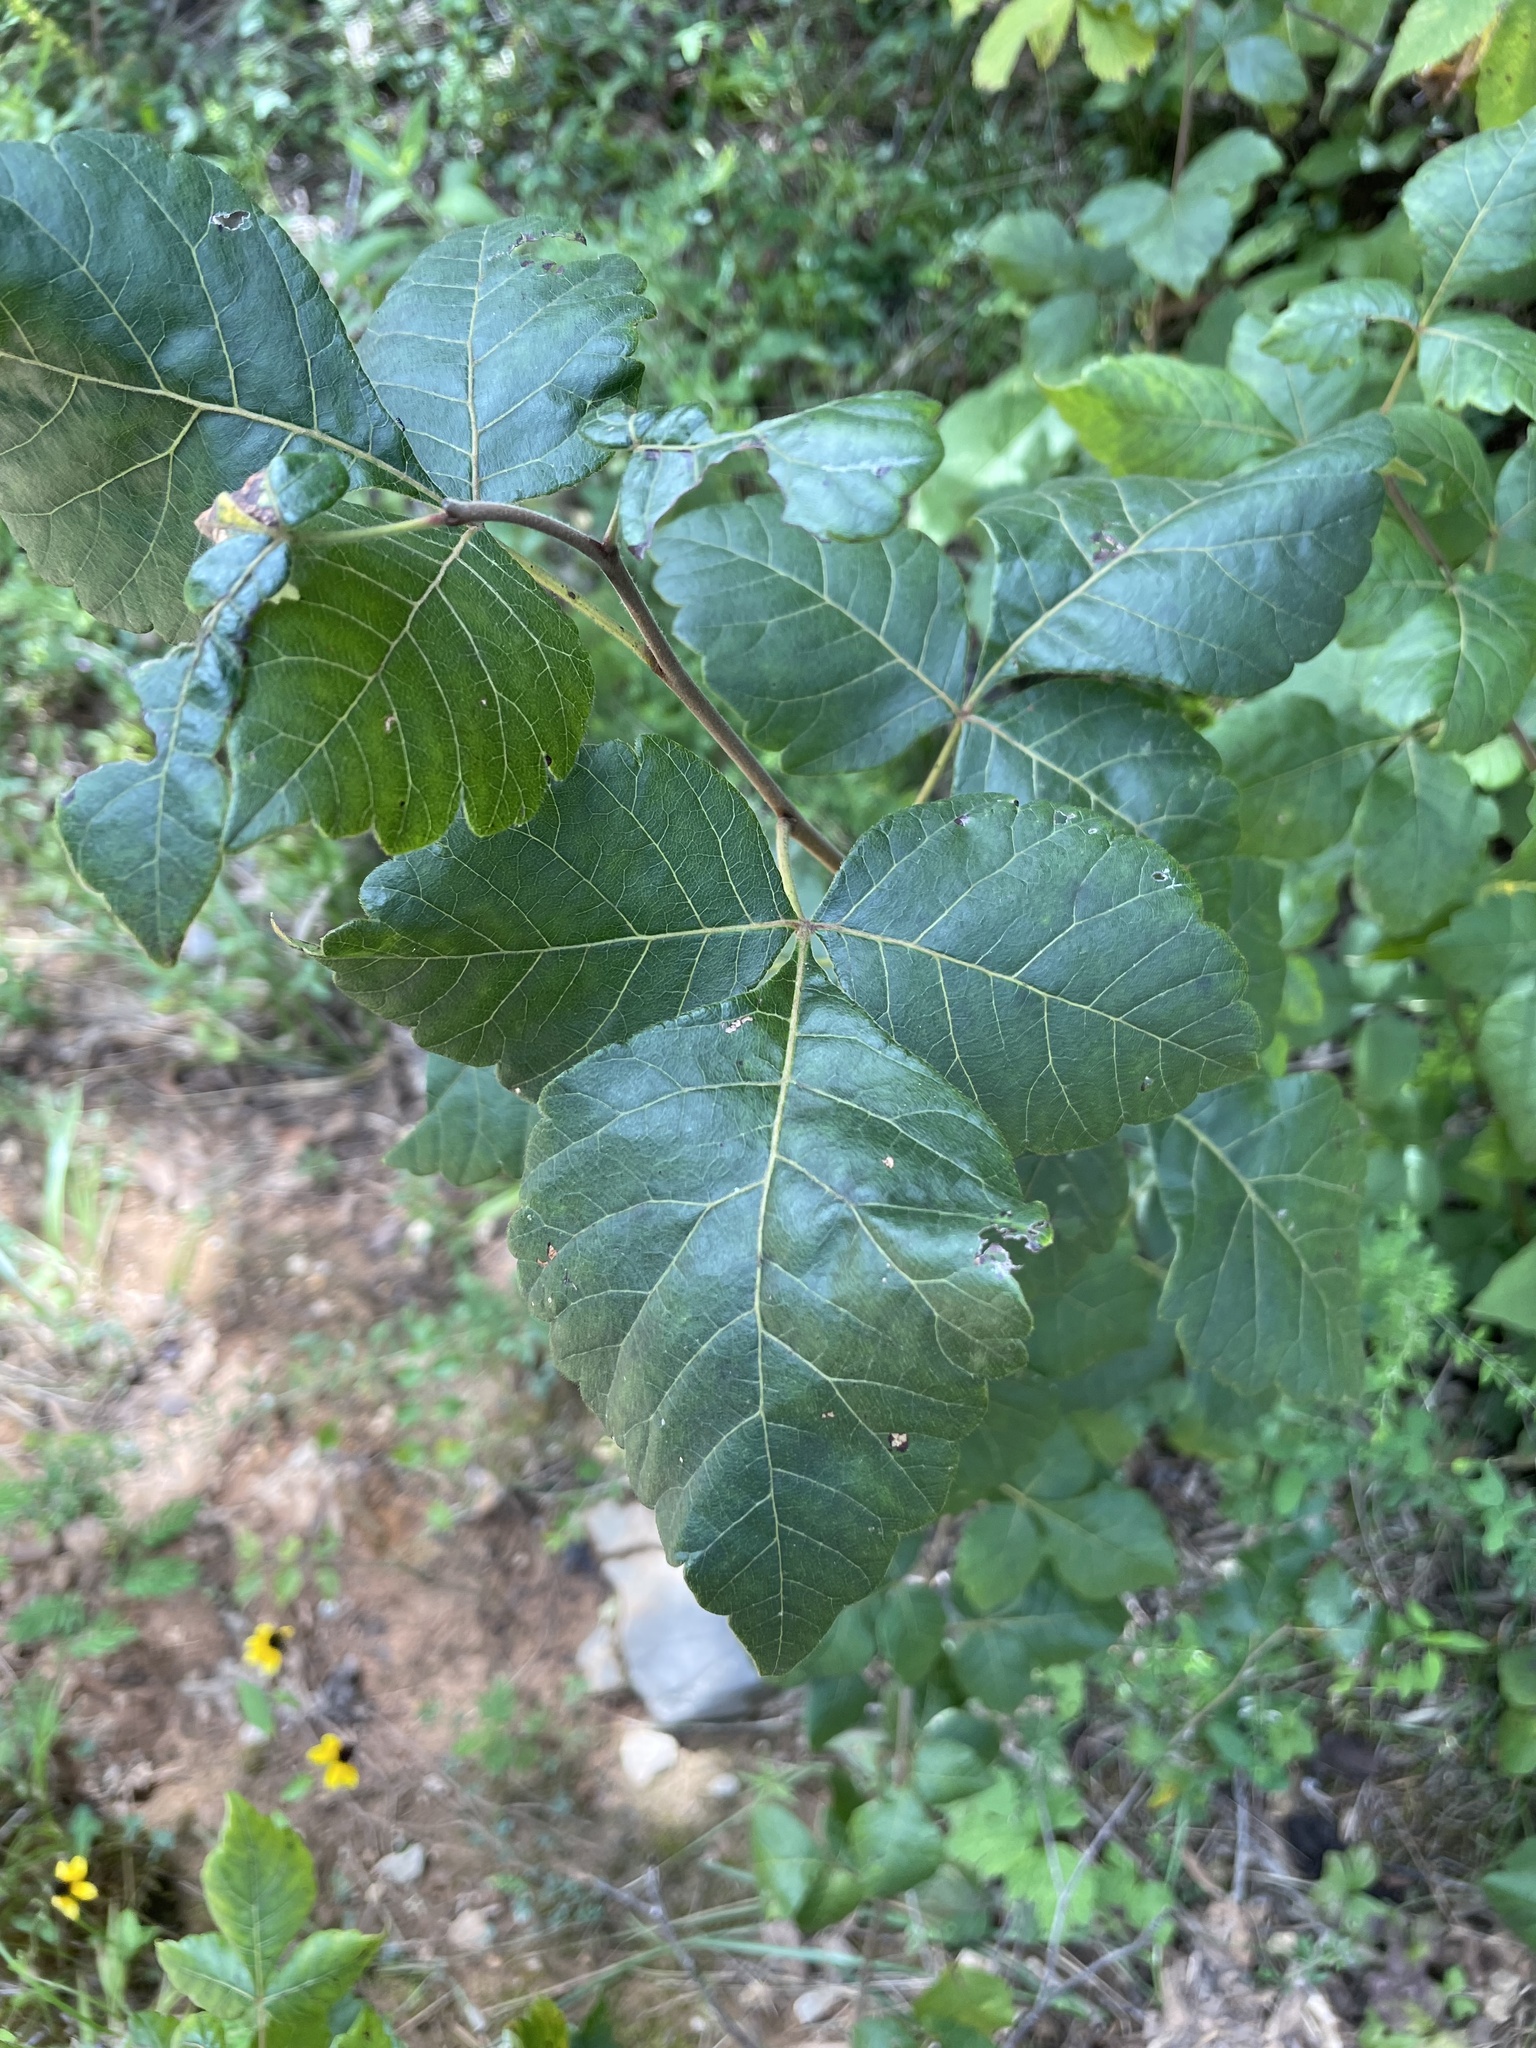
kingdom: Plantae
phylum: Tracheophyta
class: Magnoliopsida
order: Sapindales
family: Anacardiaceae
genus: Rhus
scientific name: Rhus aromatica
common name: Aromatic sumac
